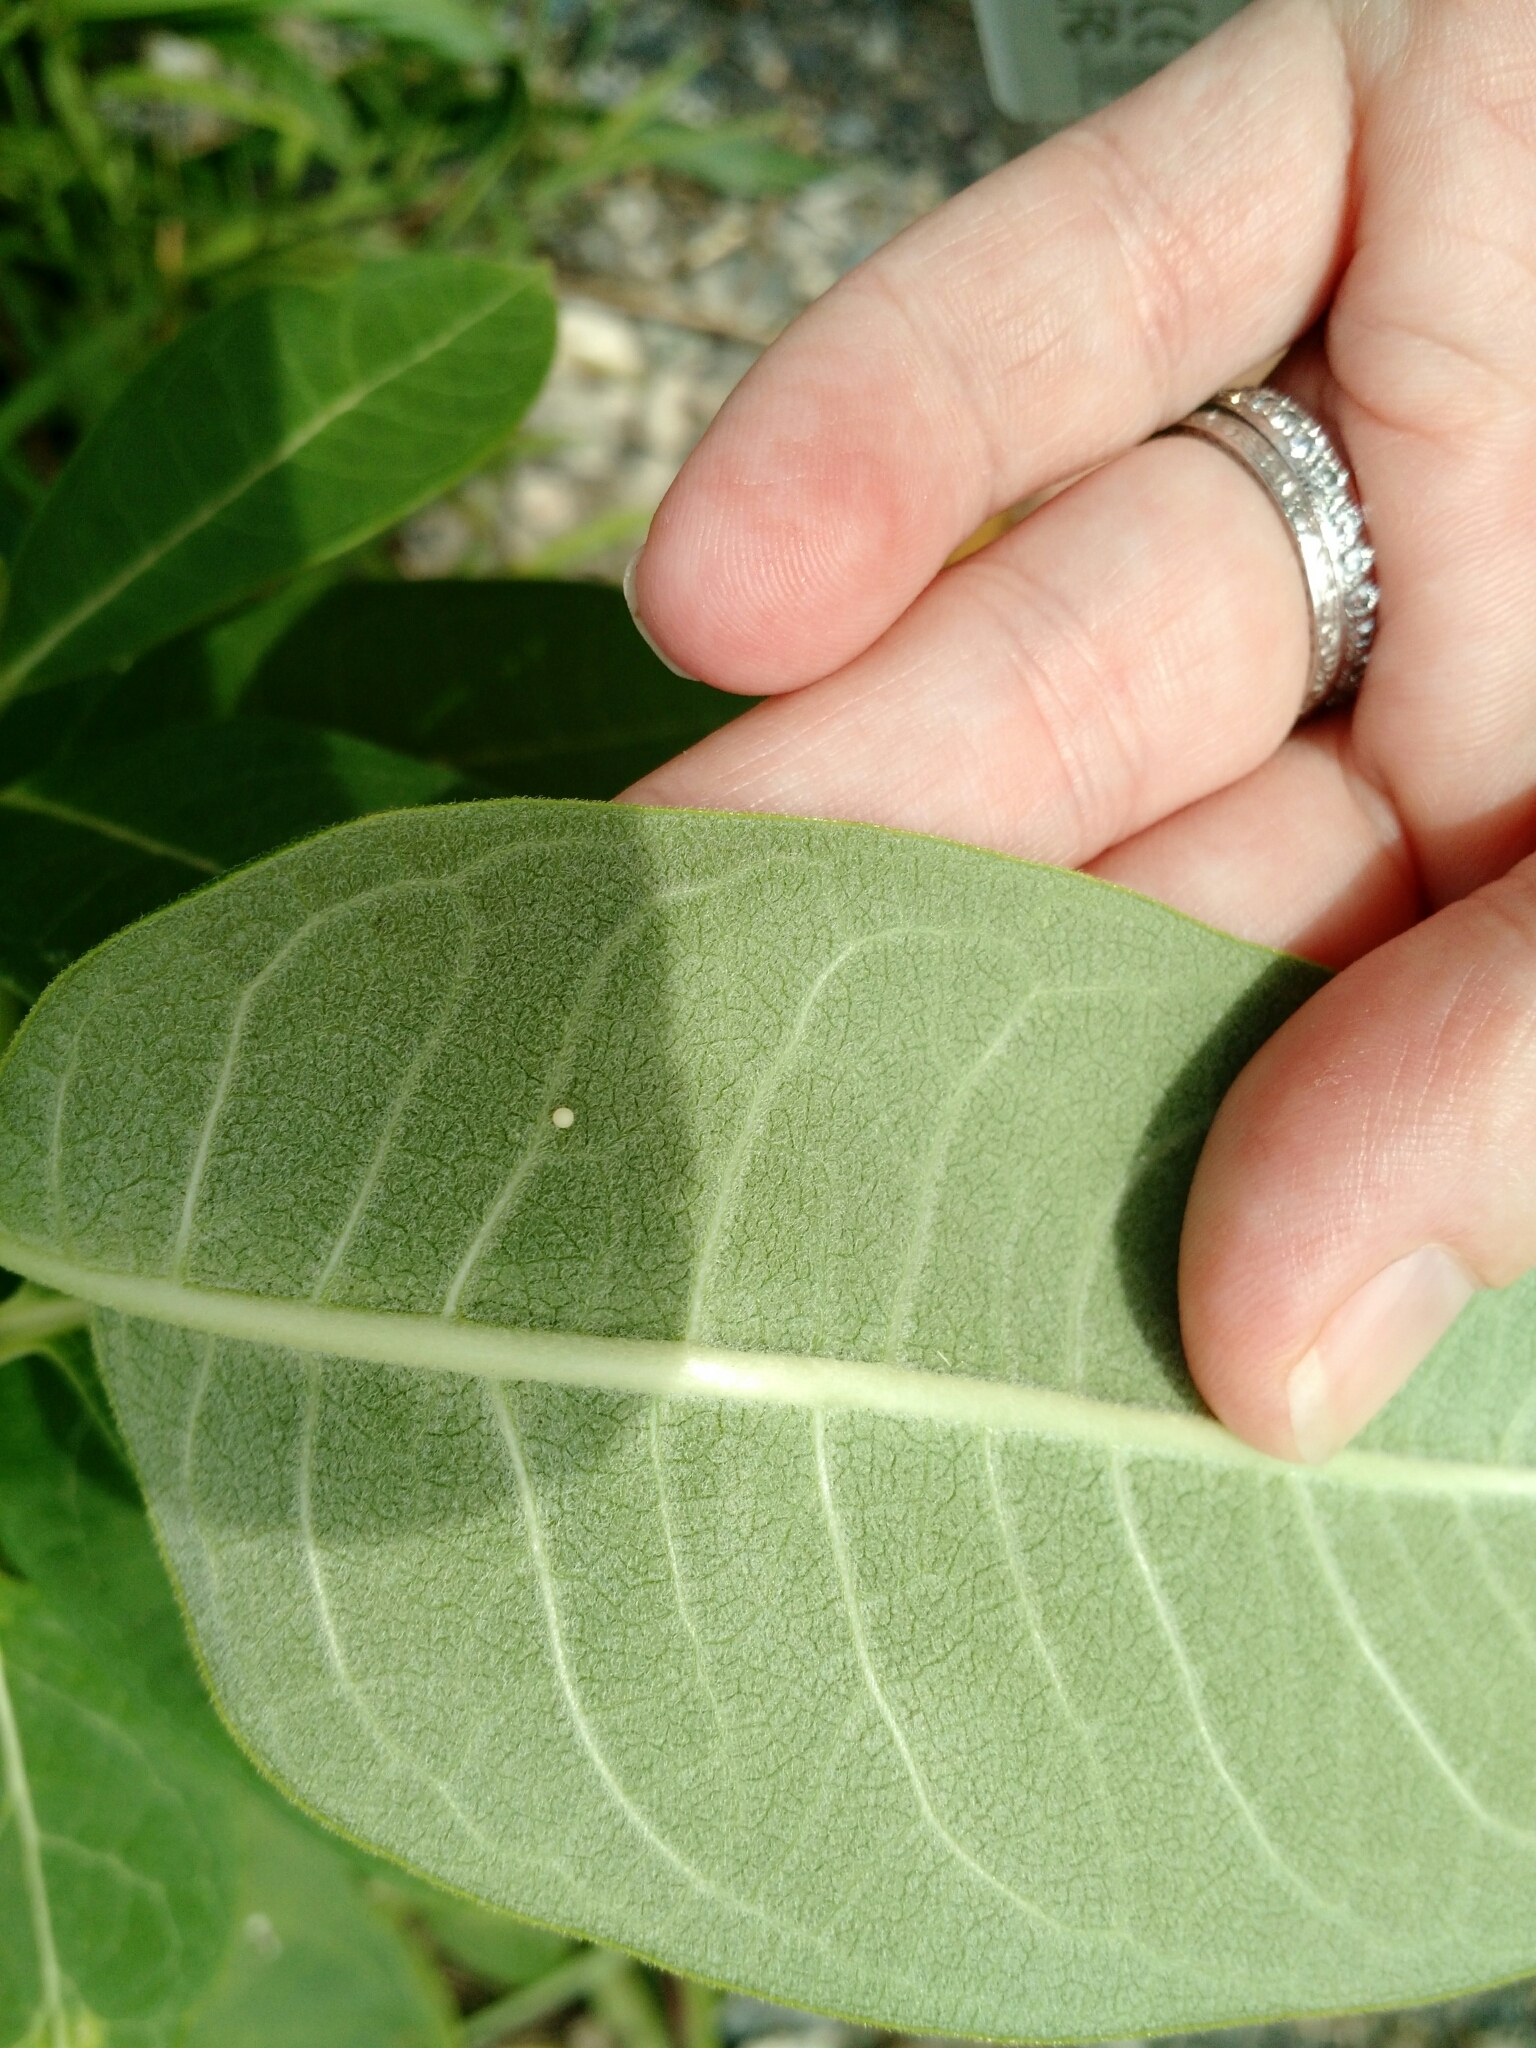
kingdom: Animalia
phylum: Arthropoda
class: Insecta
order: Lepidoptera
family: Nymphalidae
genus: Danaus
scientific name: Danaus plexippus
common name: Monarch
